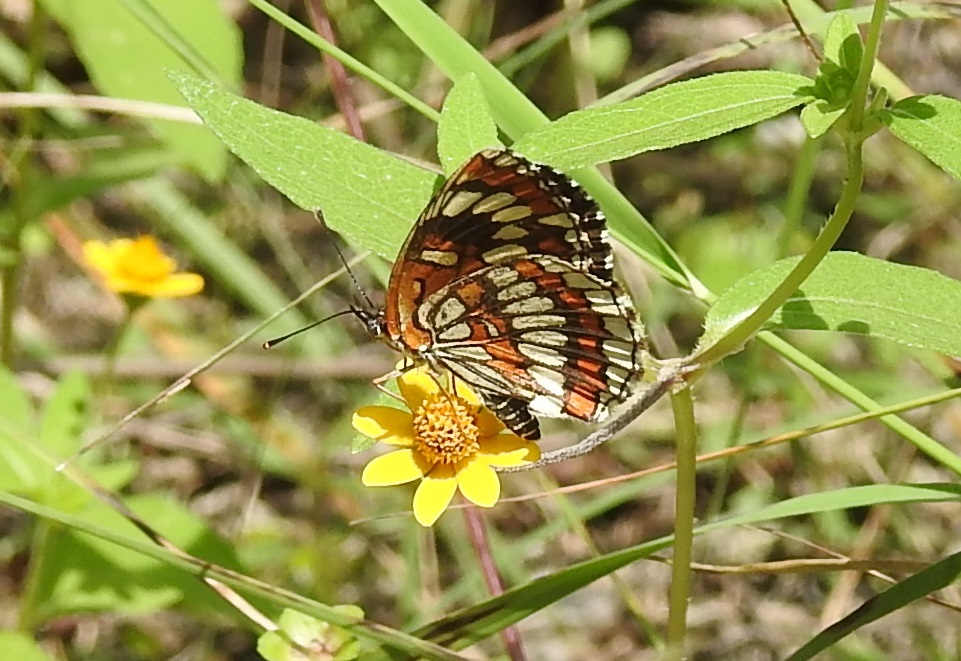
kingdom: Animalia
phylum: Arthropoda
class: Insecta
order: Lepidoptera
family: Nymphalidae
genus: Thessalia
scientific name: Thessalia theona
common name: Nymphalid moth
